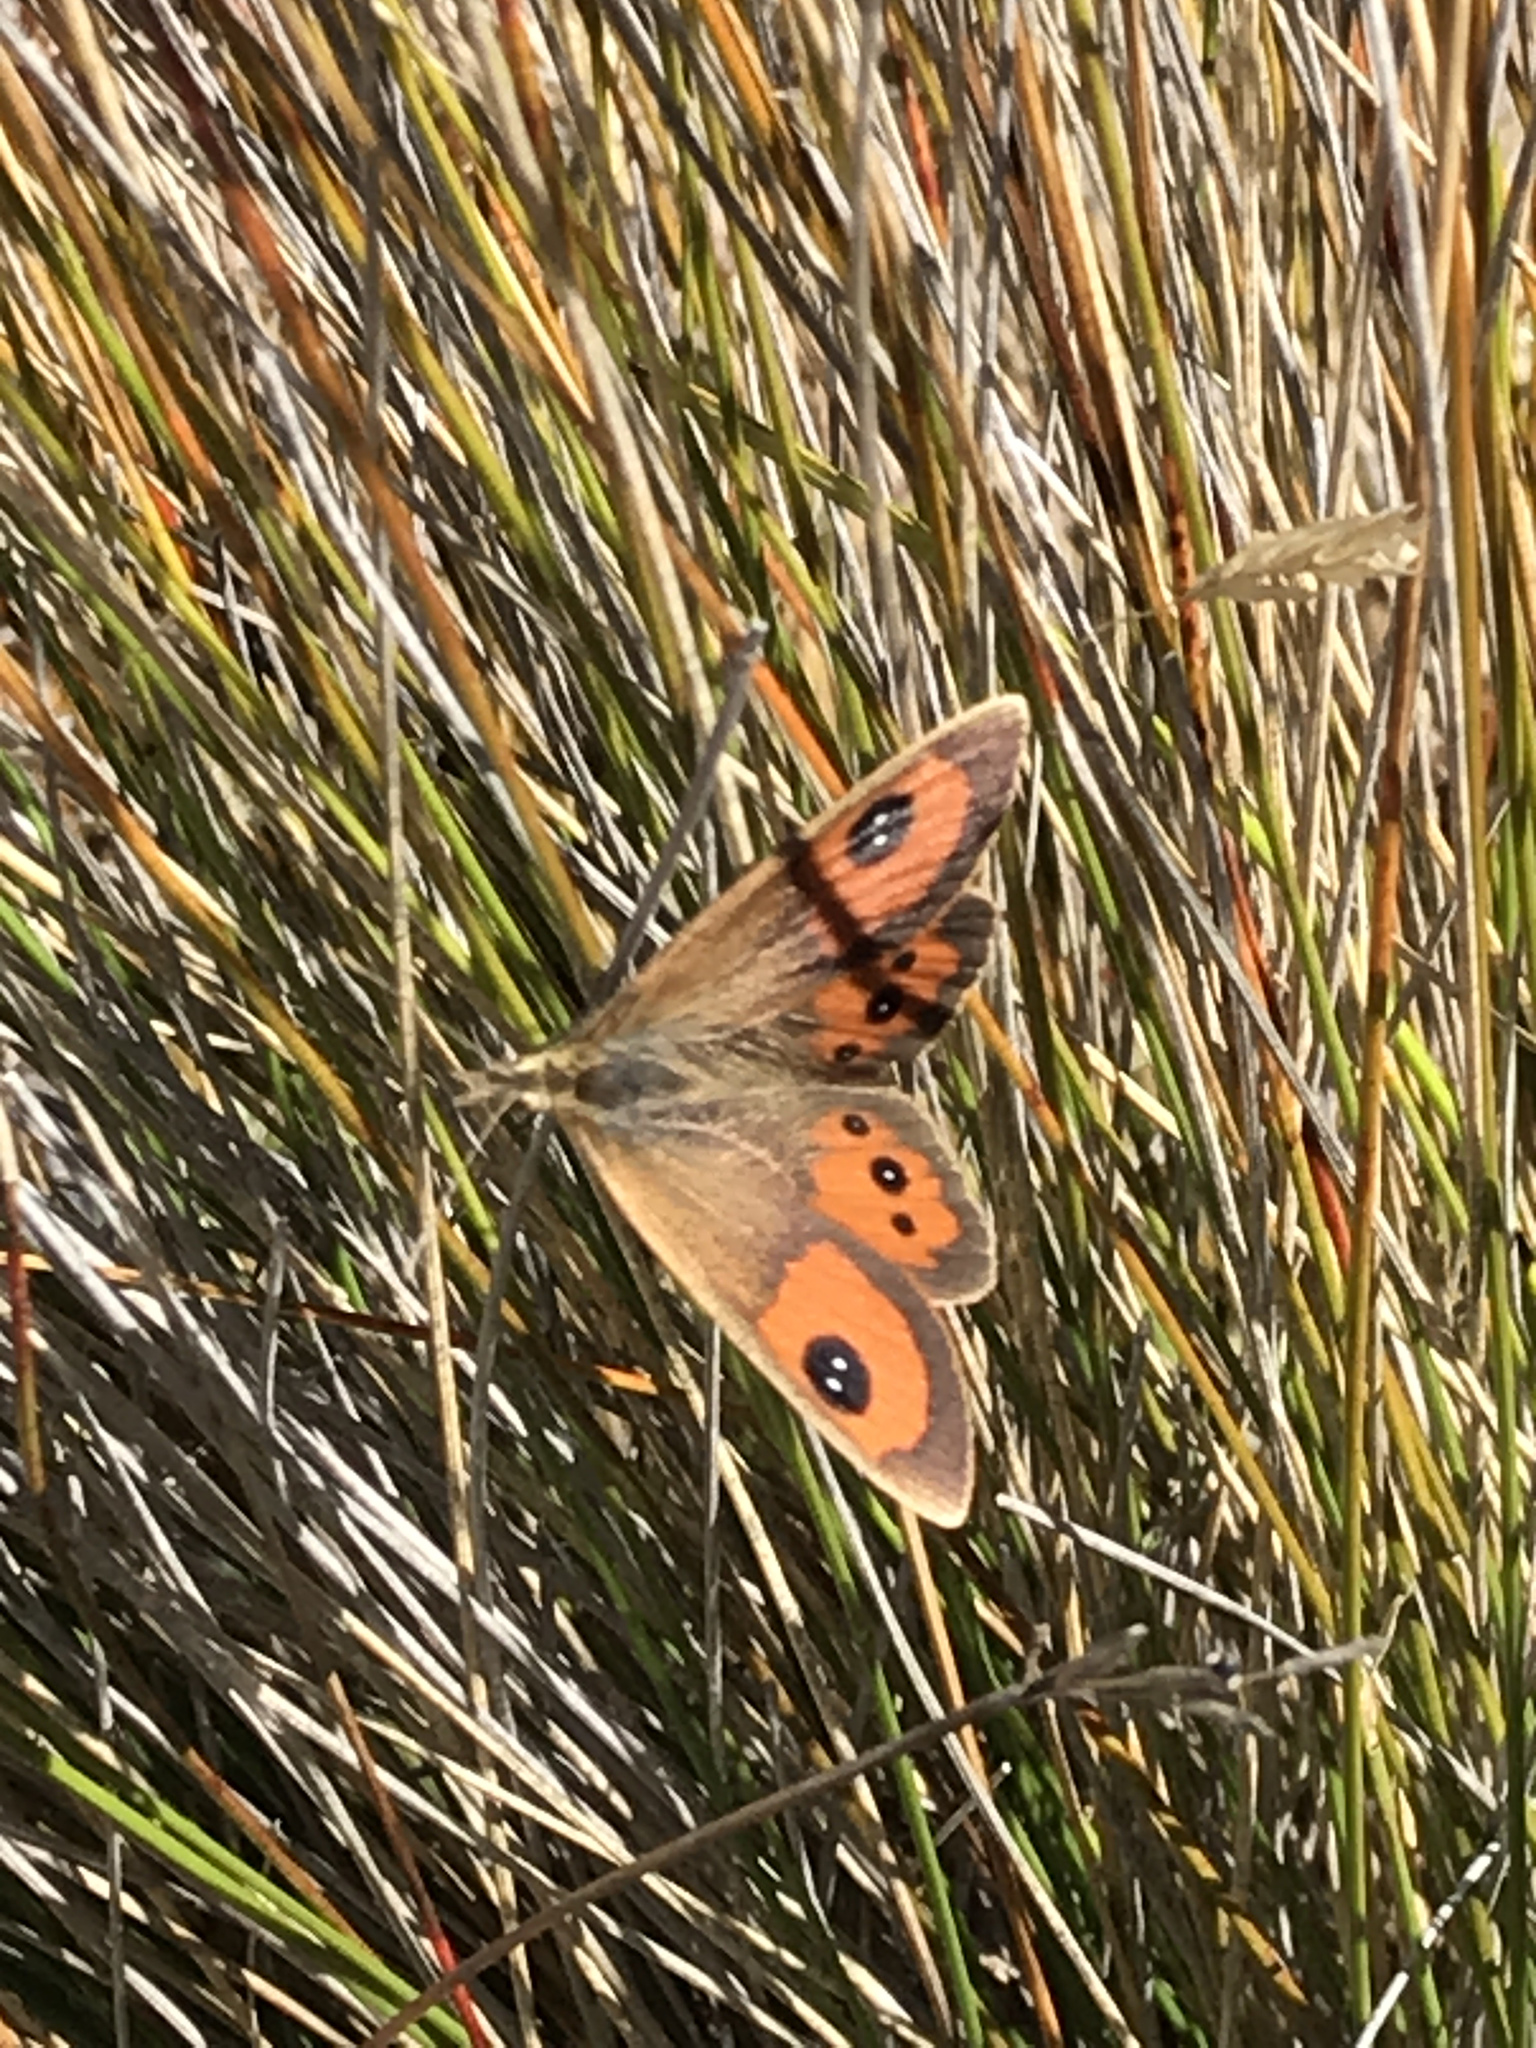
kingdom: Animalia
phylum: Arthropoda
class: Insecta
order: Lepidoptera
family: Nymphalidae
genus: Argyrophenga
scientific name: Argyrophenga antipodum
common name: Common tussock butterfly
